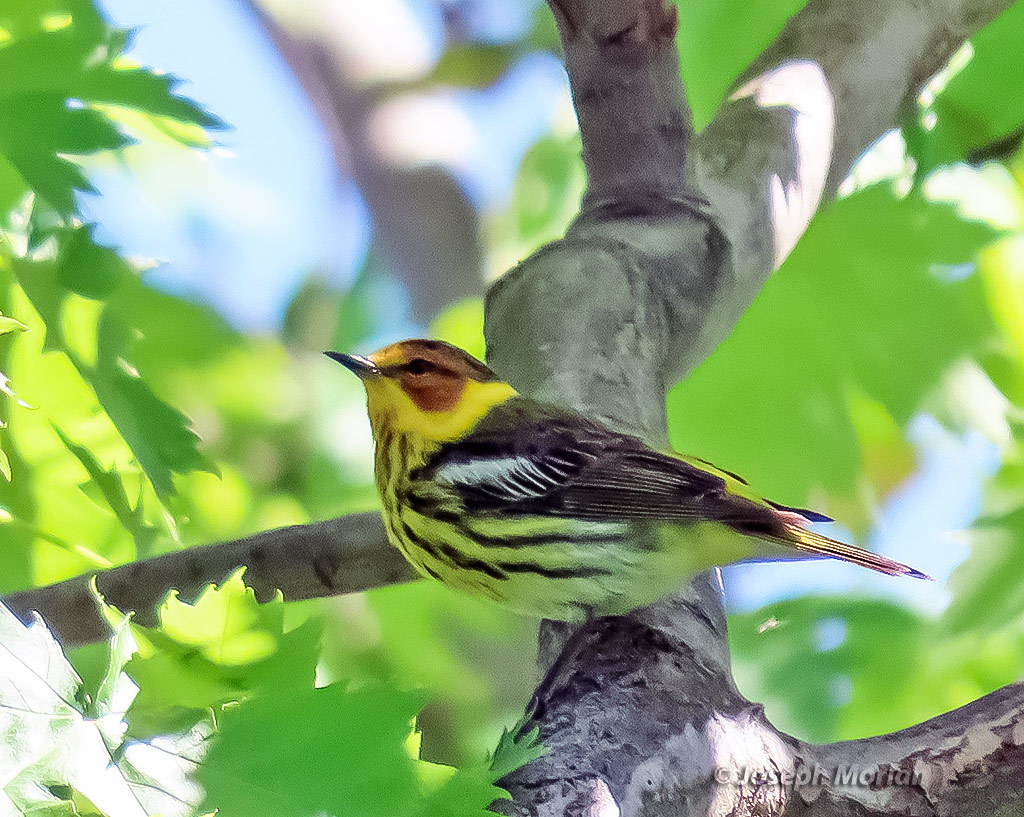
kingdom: Animalia
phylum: Chordata
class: Aves
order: Passeriformes
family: Parulidae
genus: Setophaga
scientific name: Setophaga tigrina
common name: Cape may warbler
